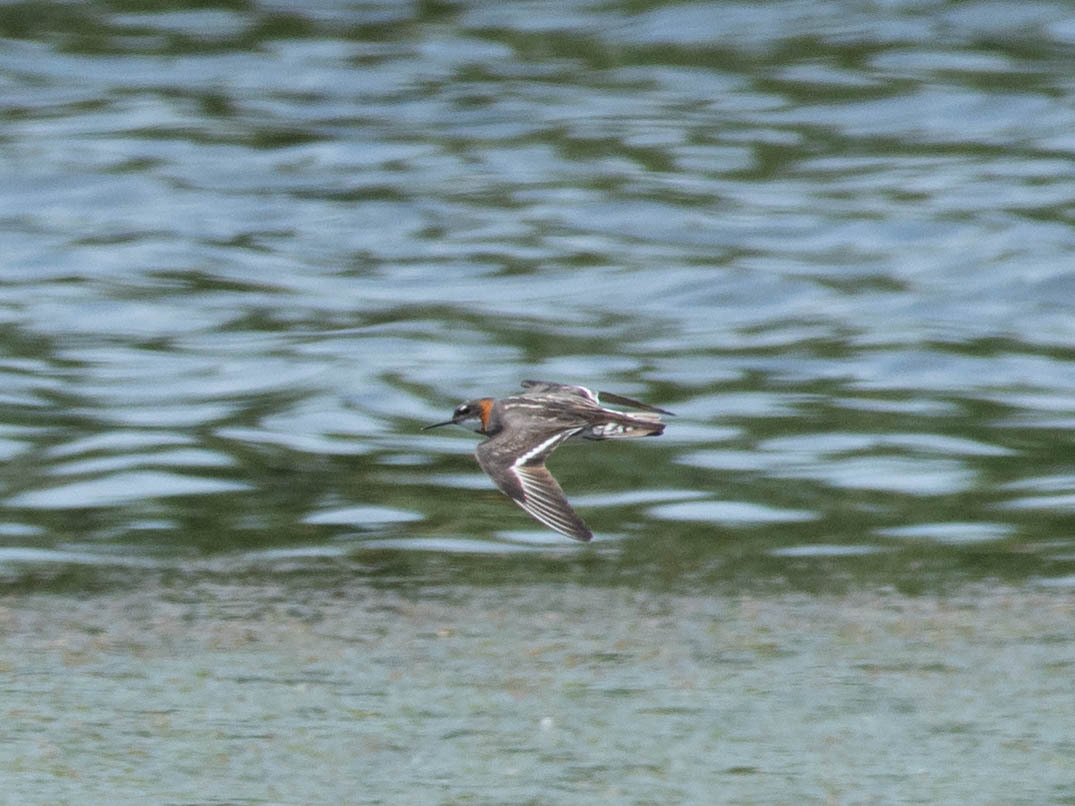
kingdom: Animalia
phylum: Chordata
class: Aves
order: Charadriiformes
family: Scolopacidae
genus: Phalaropus
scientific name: Phalaropus lobatus
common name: Red-necked phalarope
